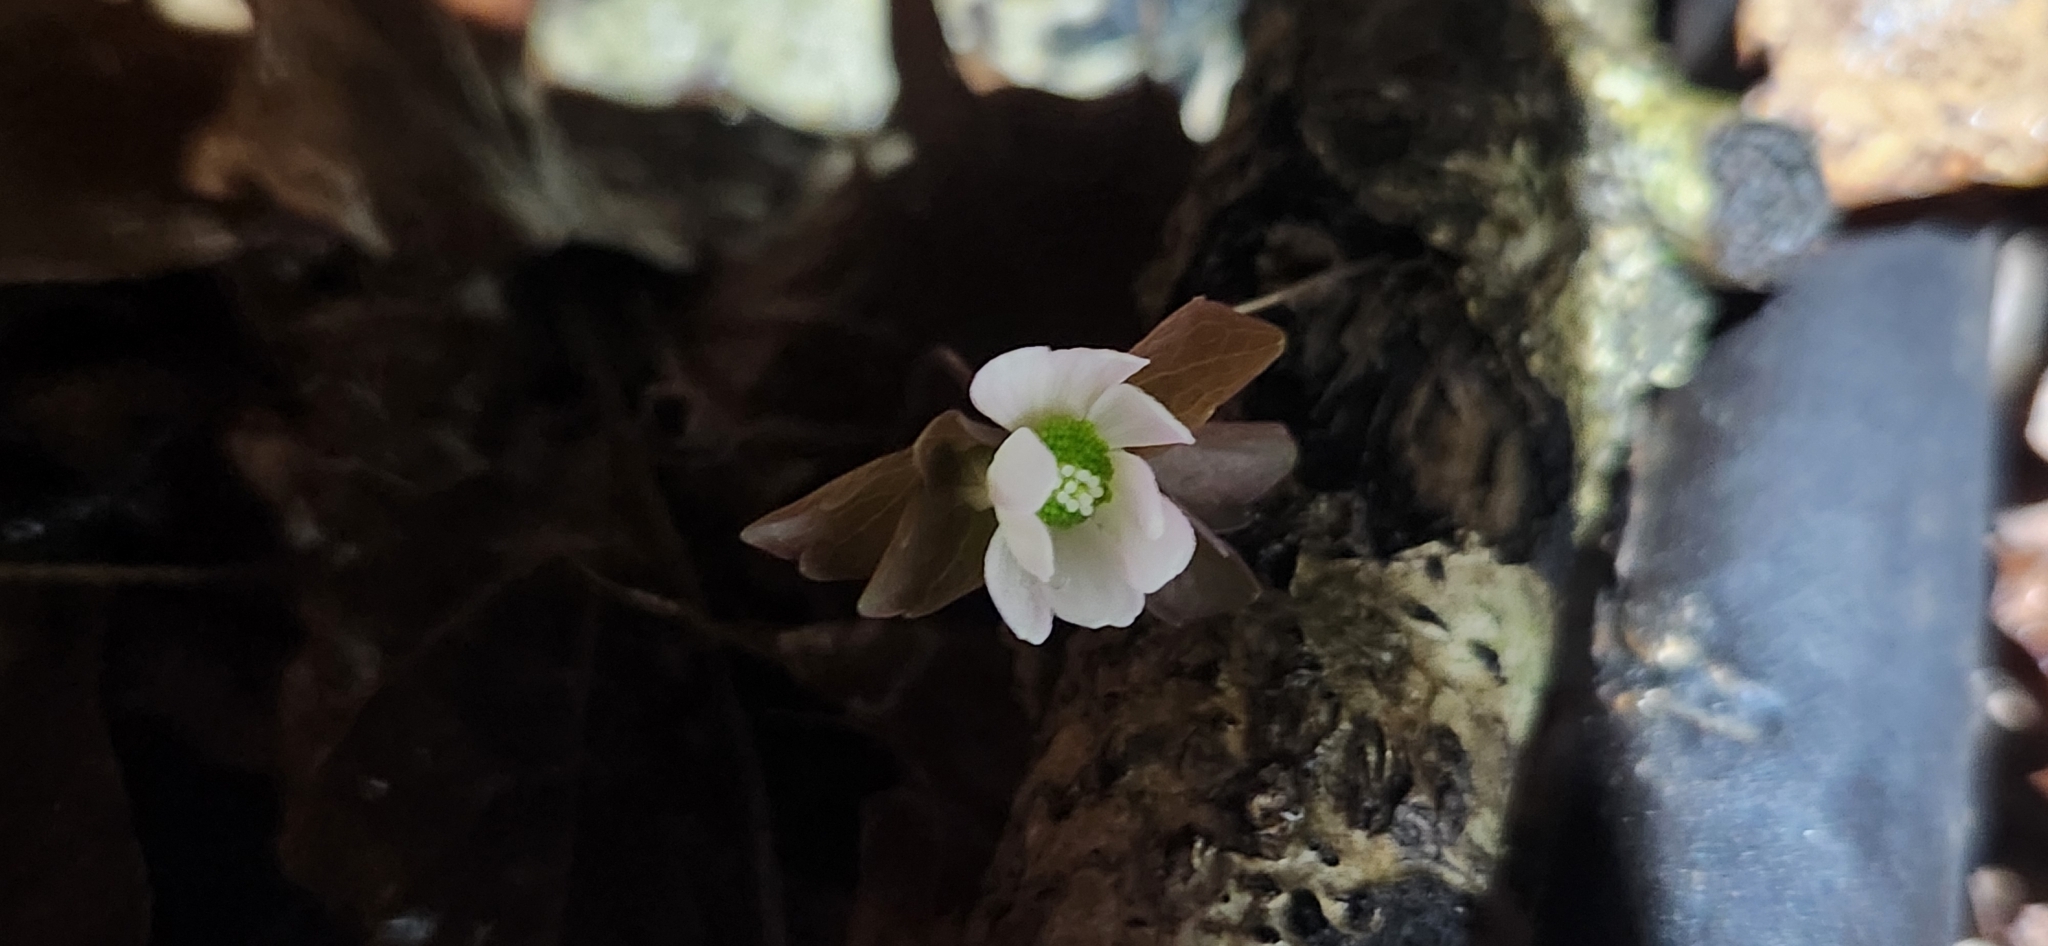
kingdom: Plantae
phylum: Tracheophyta
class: Magnoliopsida
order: Ranunculales
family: Ranunculaceae
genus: Thalictrum
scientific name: Thalictrum thalictroides
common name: Rue-anemone
